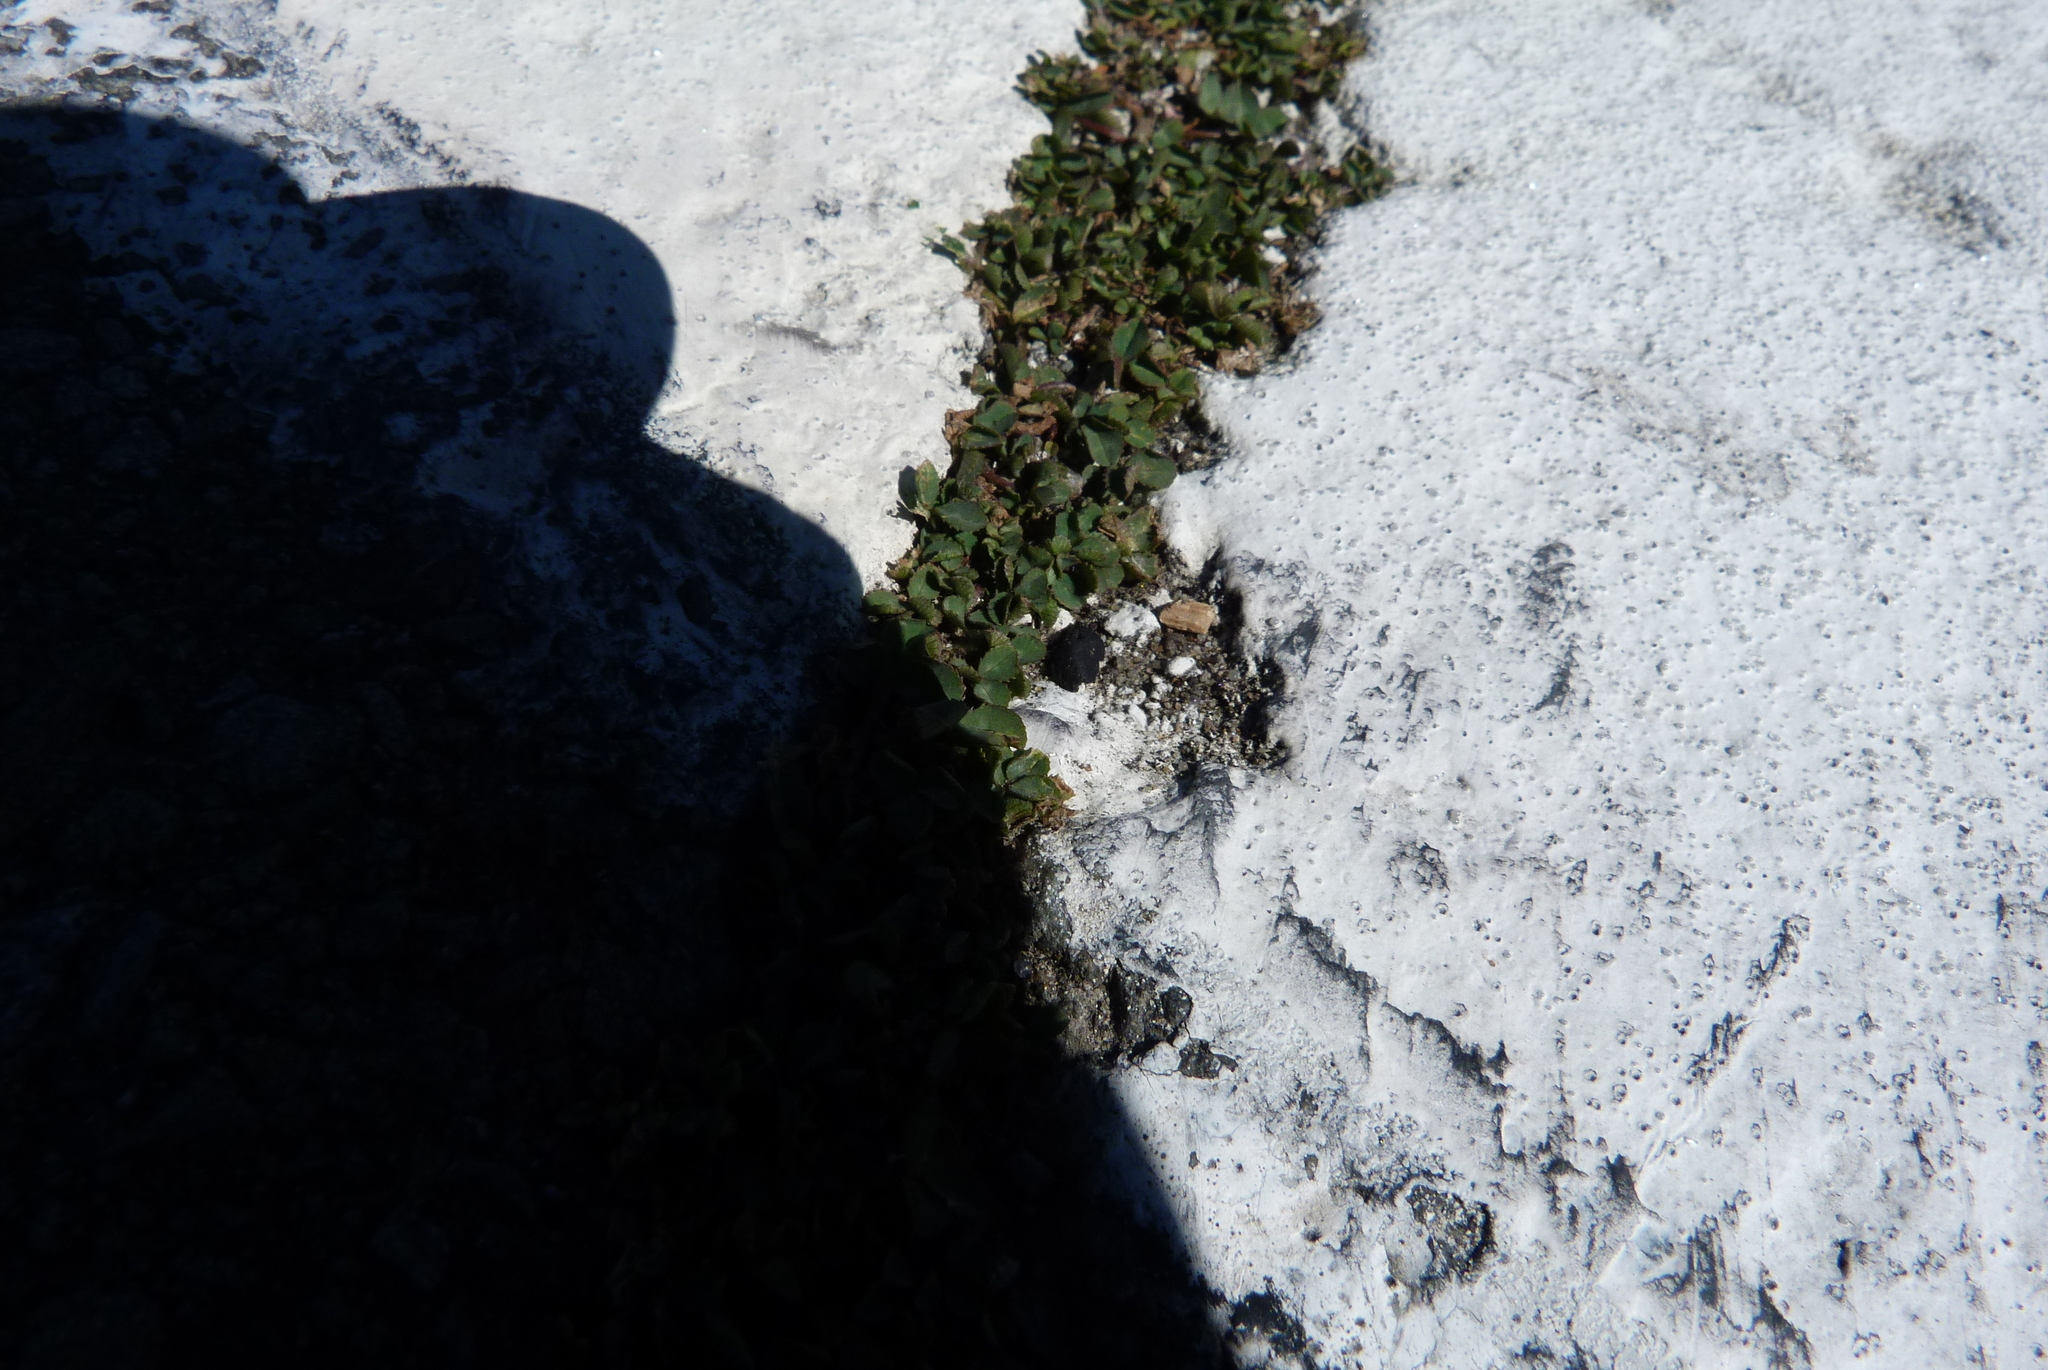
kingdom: Plantae
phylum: Tracheophyta
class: Magnoliopsida
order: Fabales
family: Fabaceae
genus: Trifolium
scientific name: Trifolium repens
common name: White clover
